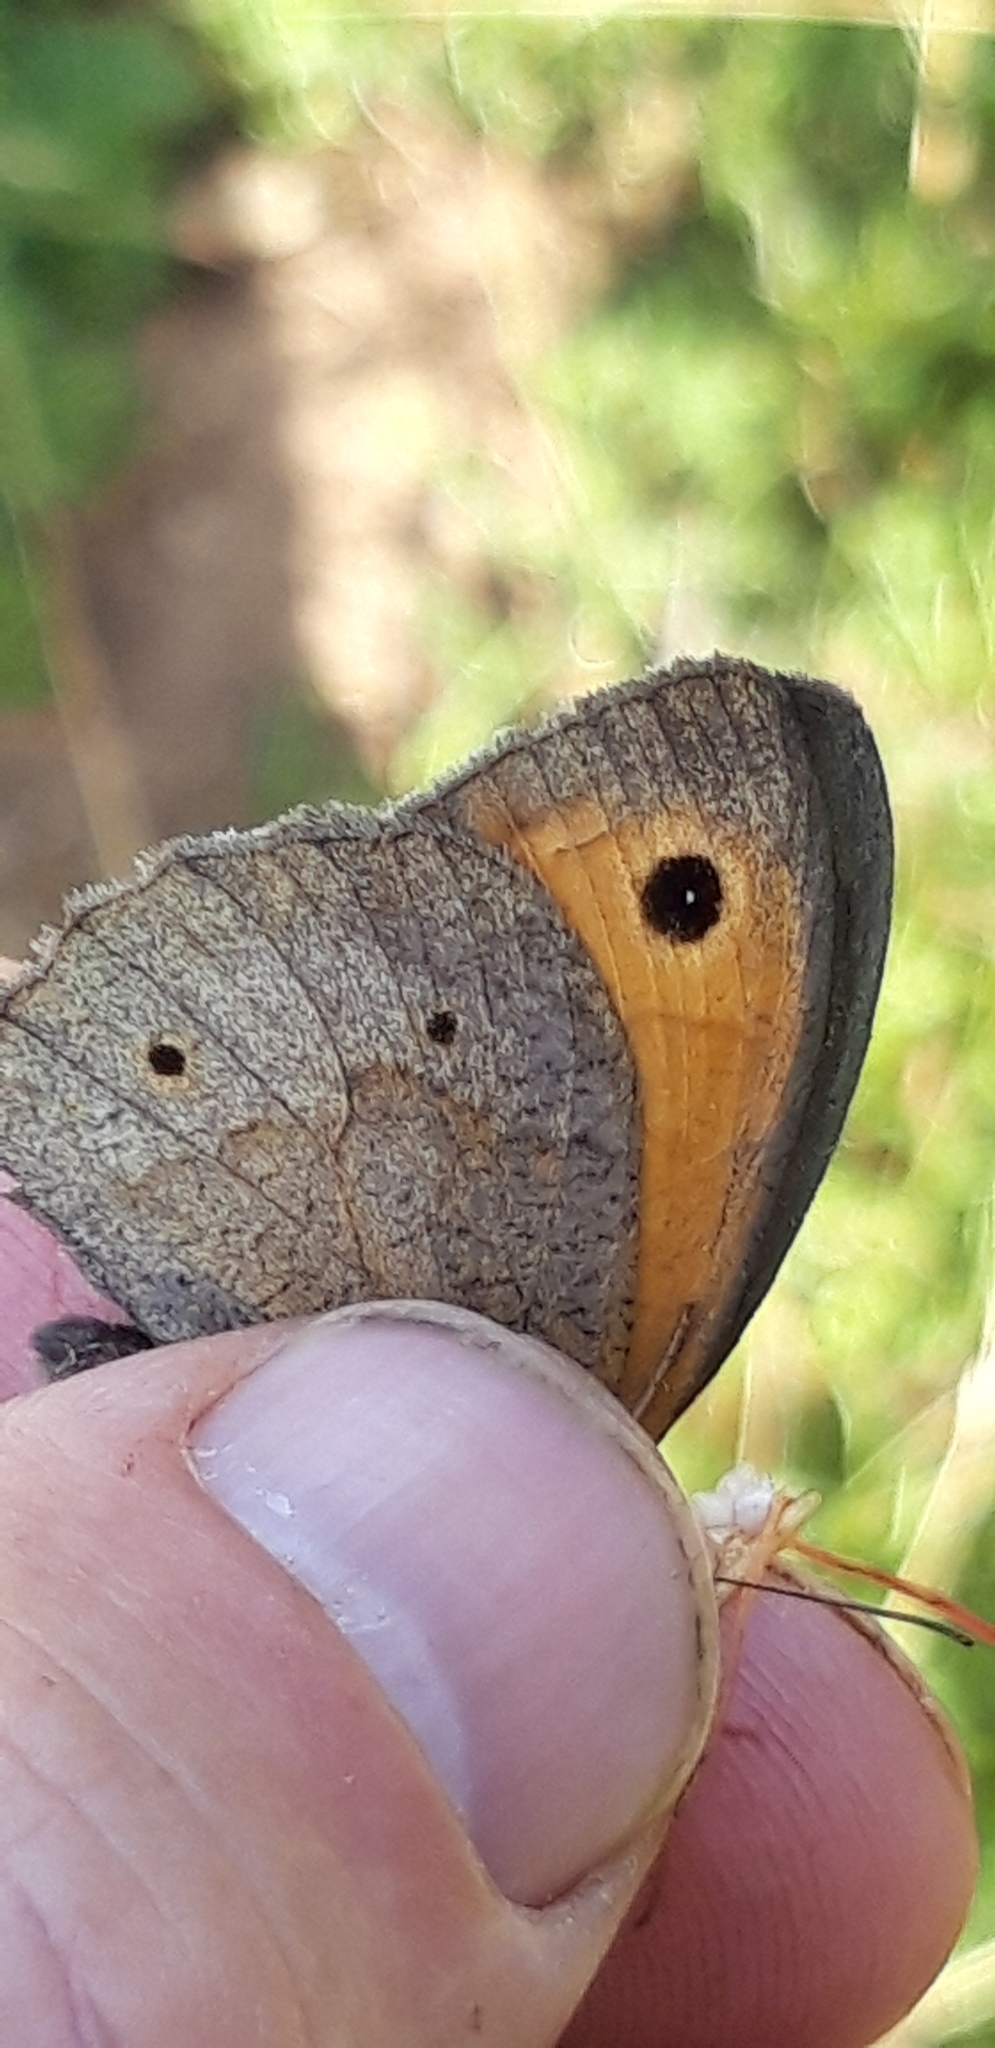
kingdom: Animalia
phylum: Arthropoda
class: Insecta
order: Lepidoptera
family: Nymphalidae
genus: Maniola
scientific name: Maniola jurtina
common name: Meadow brown
